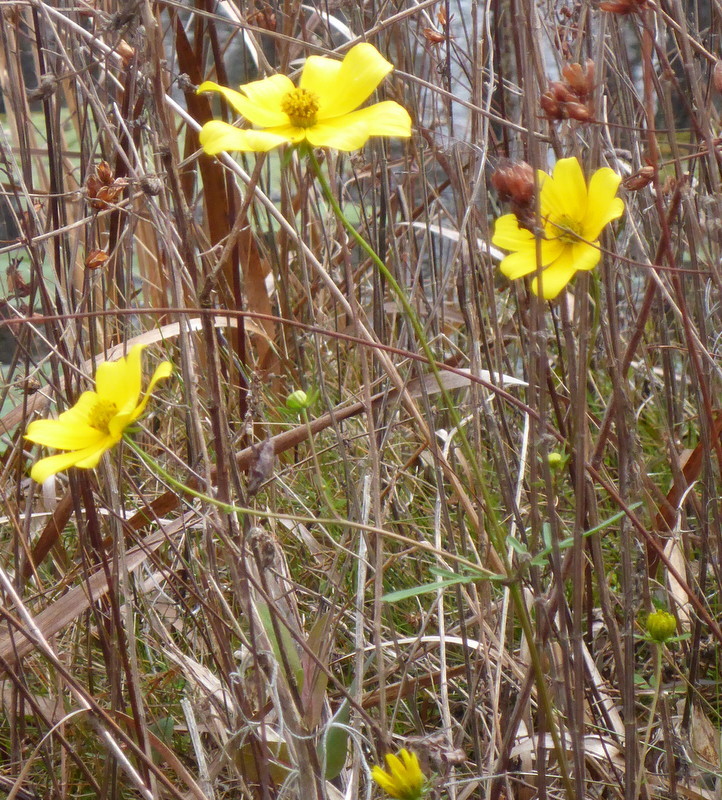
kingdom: Plantae
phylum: Tracheophyta
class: Magnoliopsida
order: Asterales
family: Asteraceae
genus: Bidens
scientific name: Bidens mitis
